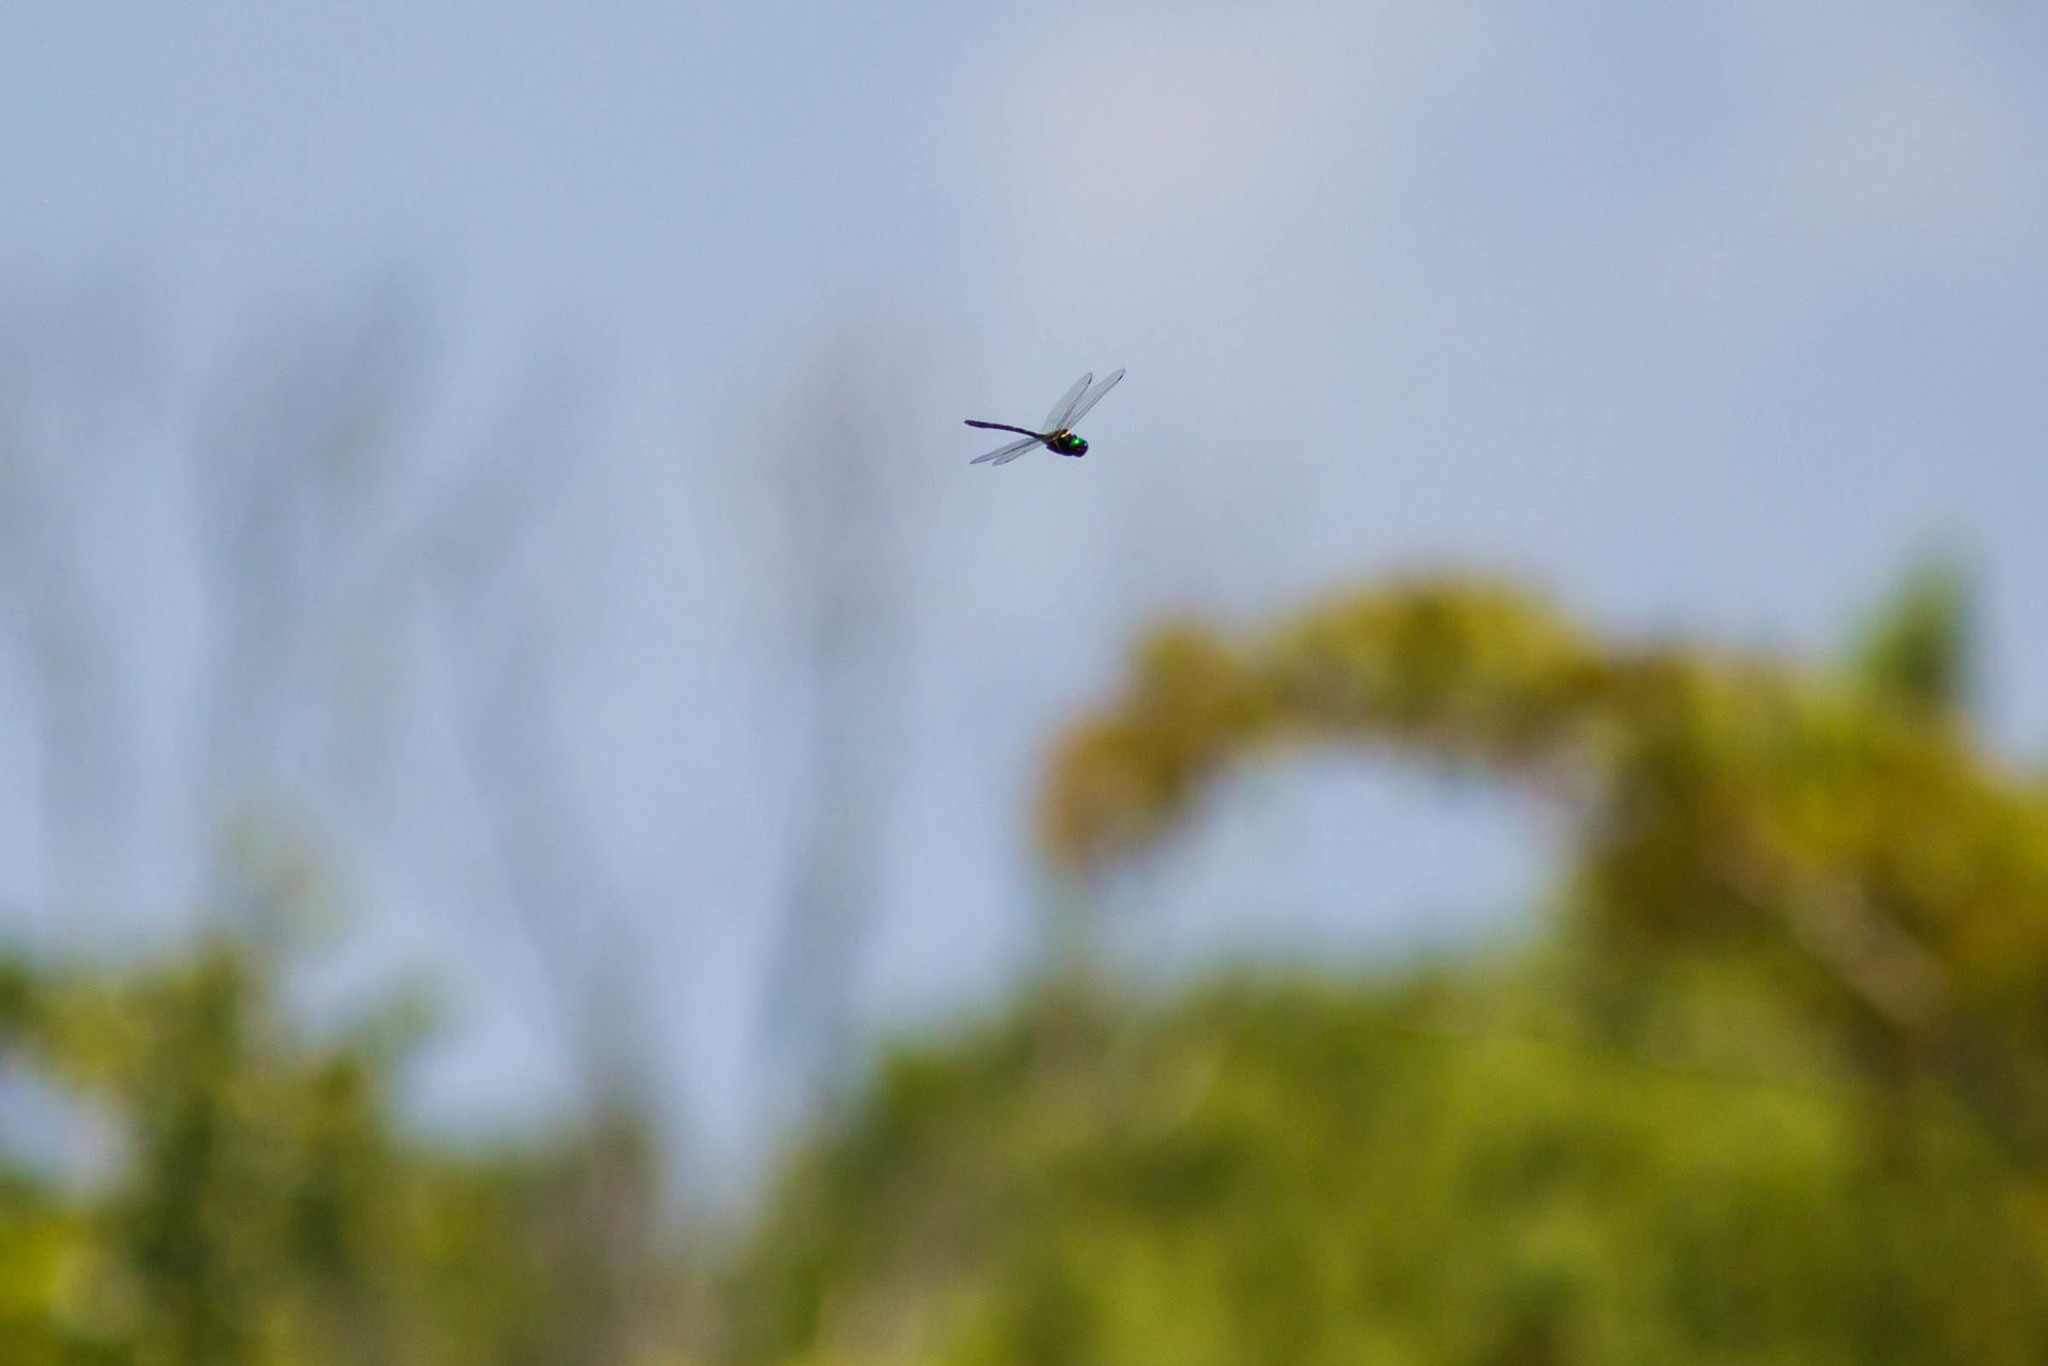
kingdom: Animalia
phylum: Arthropoda
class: Insecta
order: Odonata
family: Macromiidae
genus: Macromia
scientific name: Macromia taeniolata
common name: Royal river cruiser
